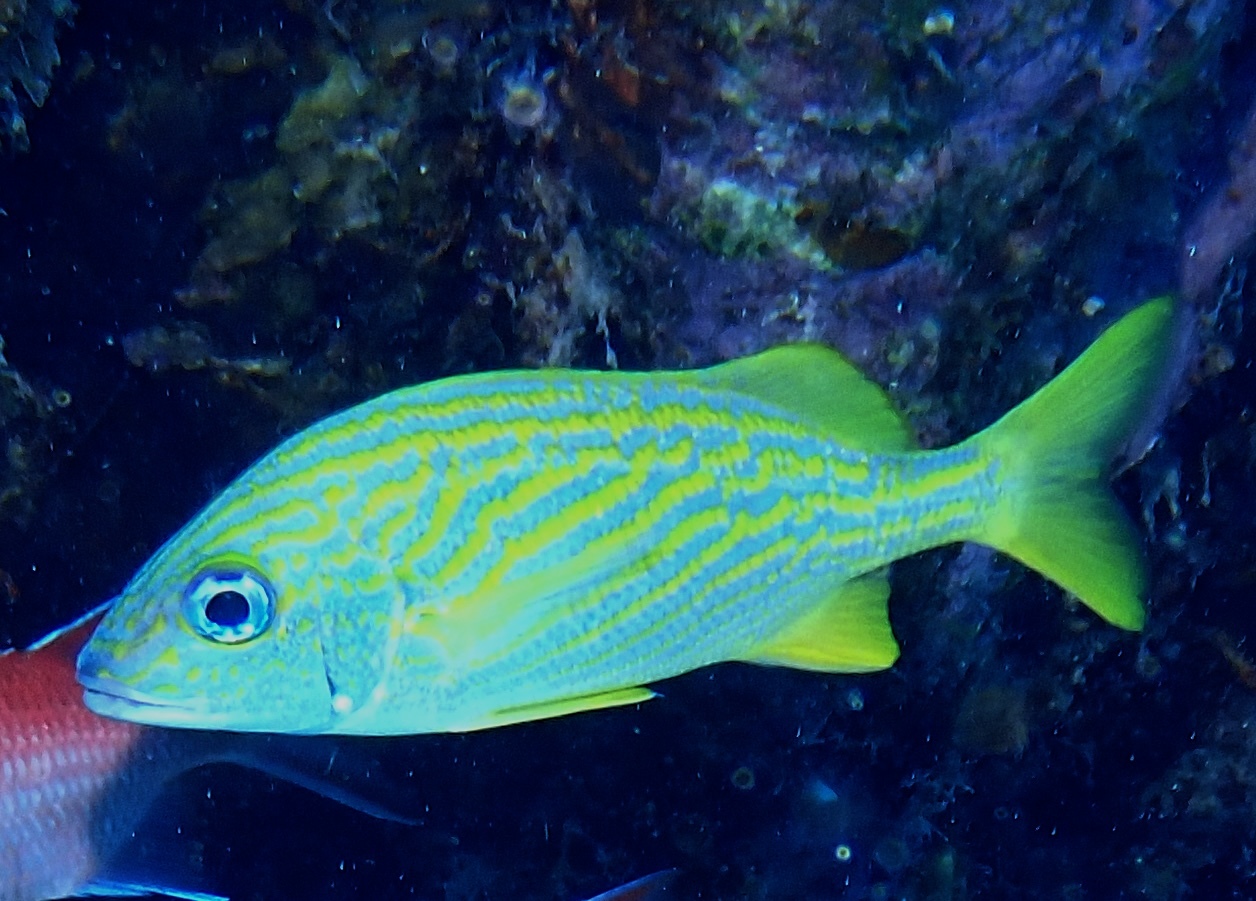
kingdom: Animalia
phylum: Chordata
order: Perciformes
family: Haemulidae
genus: Haemulon
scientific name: Haemulon flavolineatum
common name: French grunt
